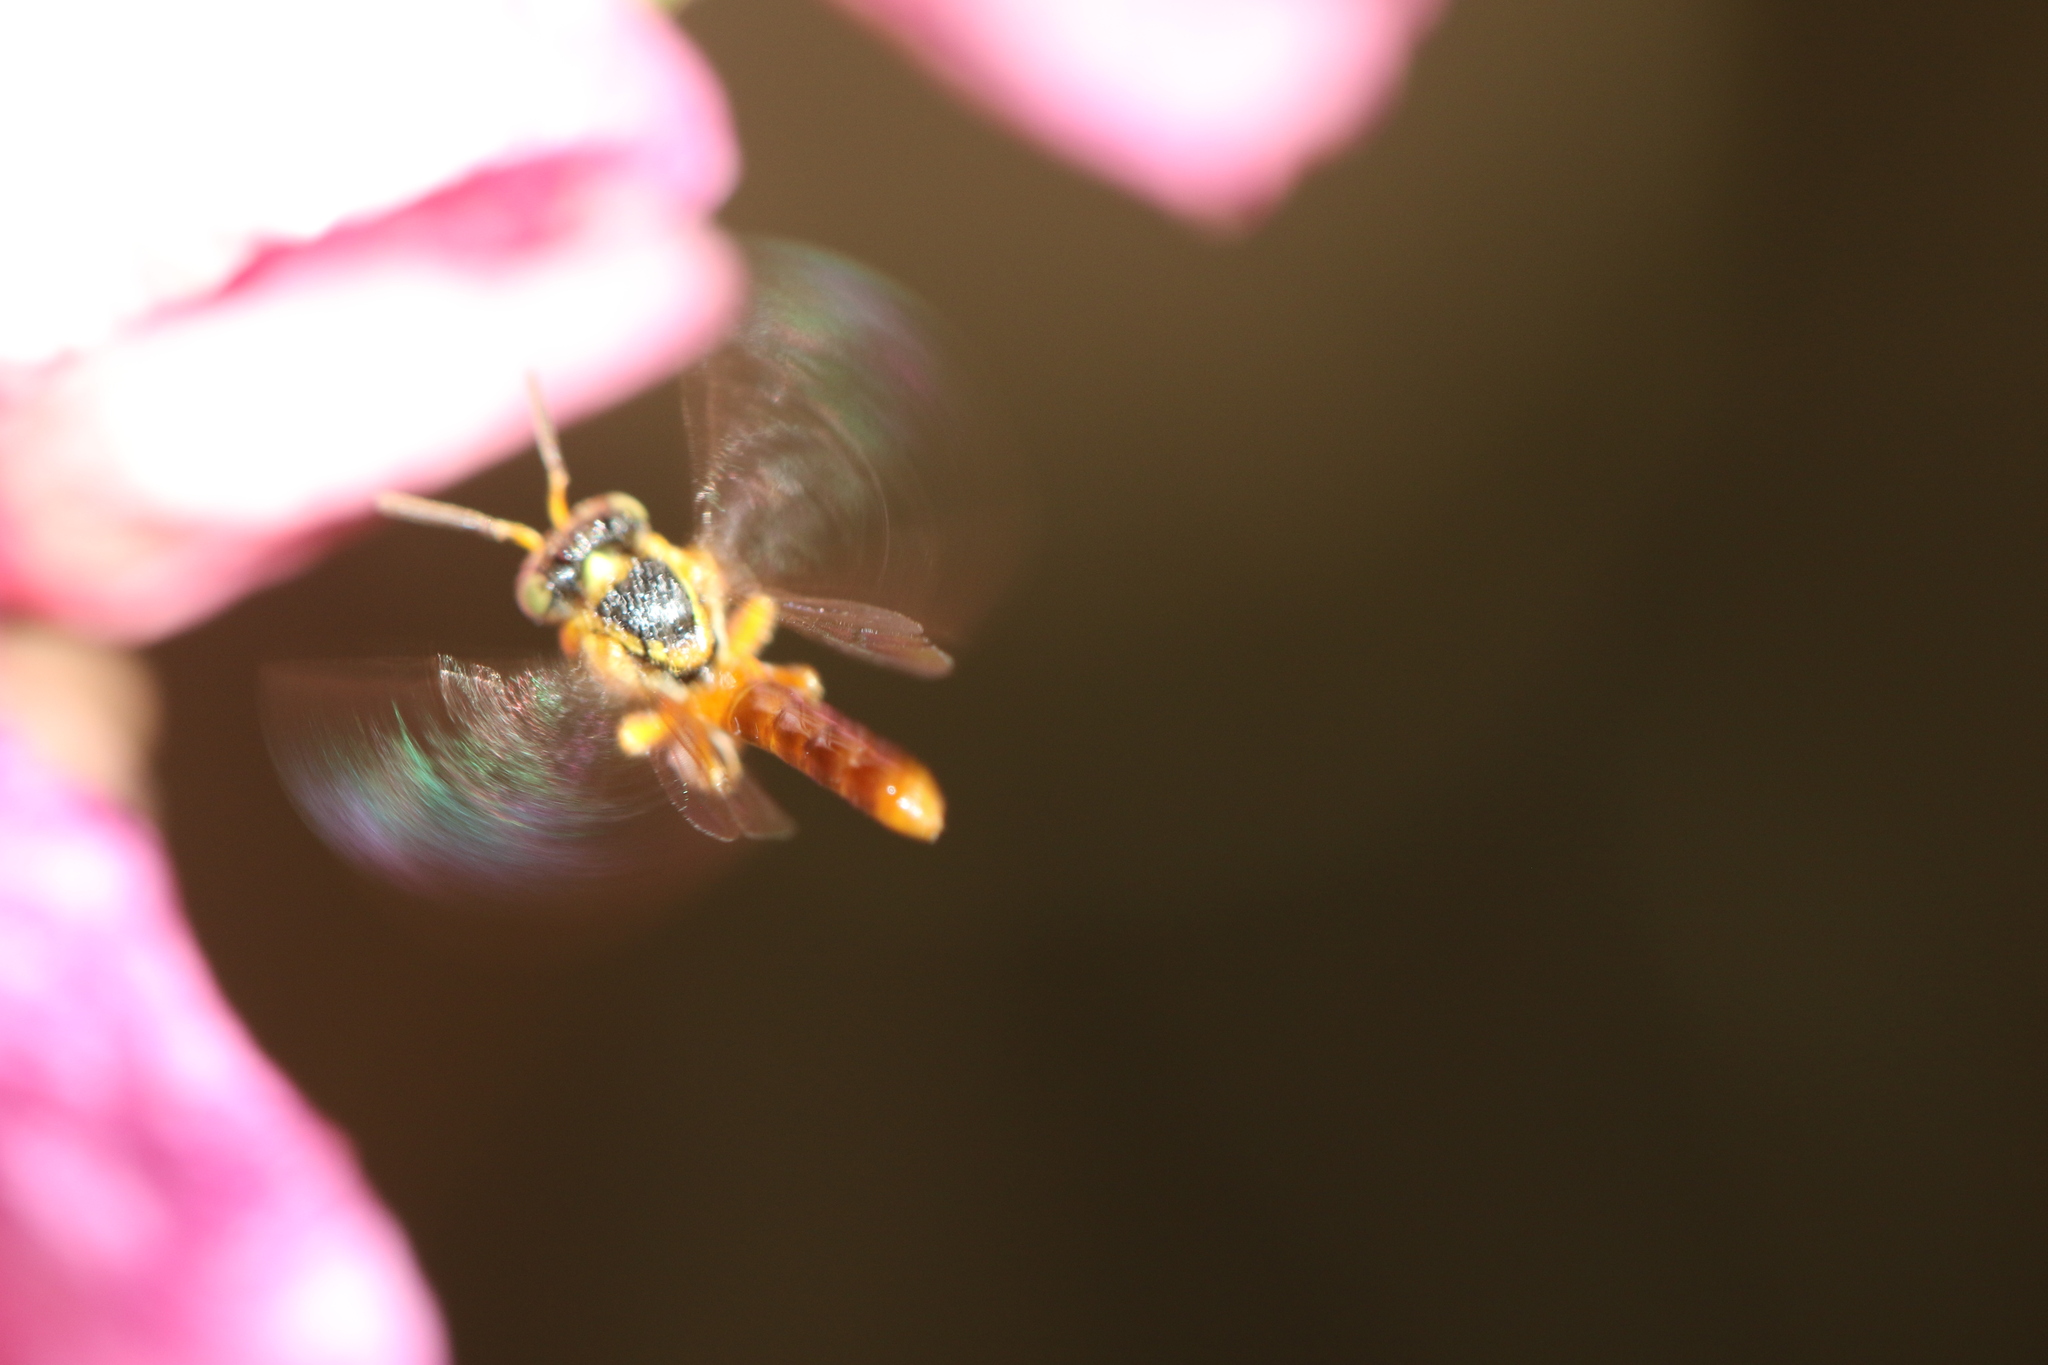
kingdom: Animalia
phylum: Arthropoda
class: Insecta
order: Hymenoptera
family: Apidae
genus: Tetragonisca
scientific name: Tetragonisca angustula
